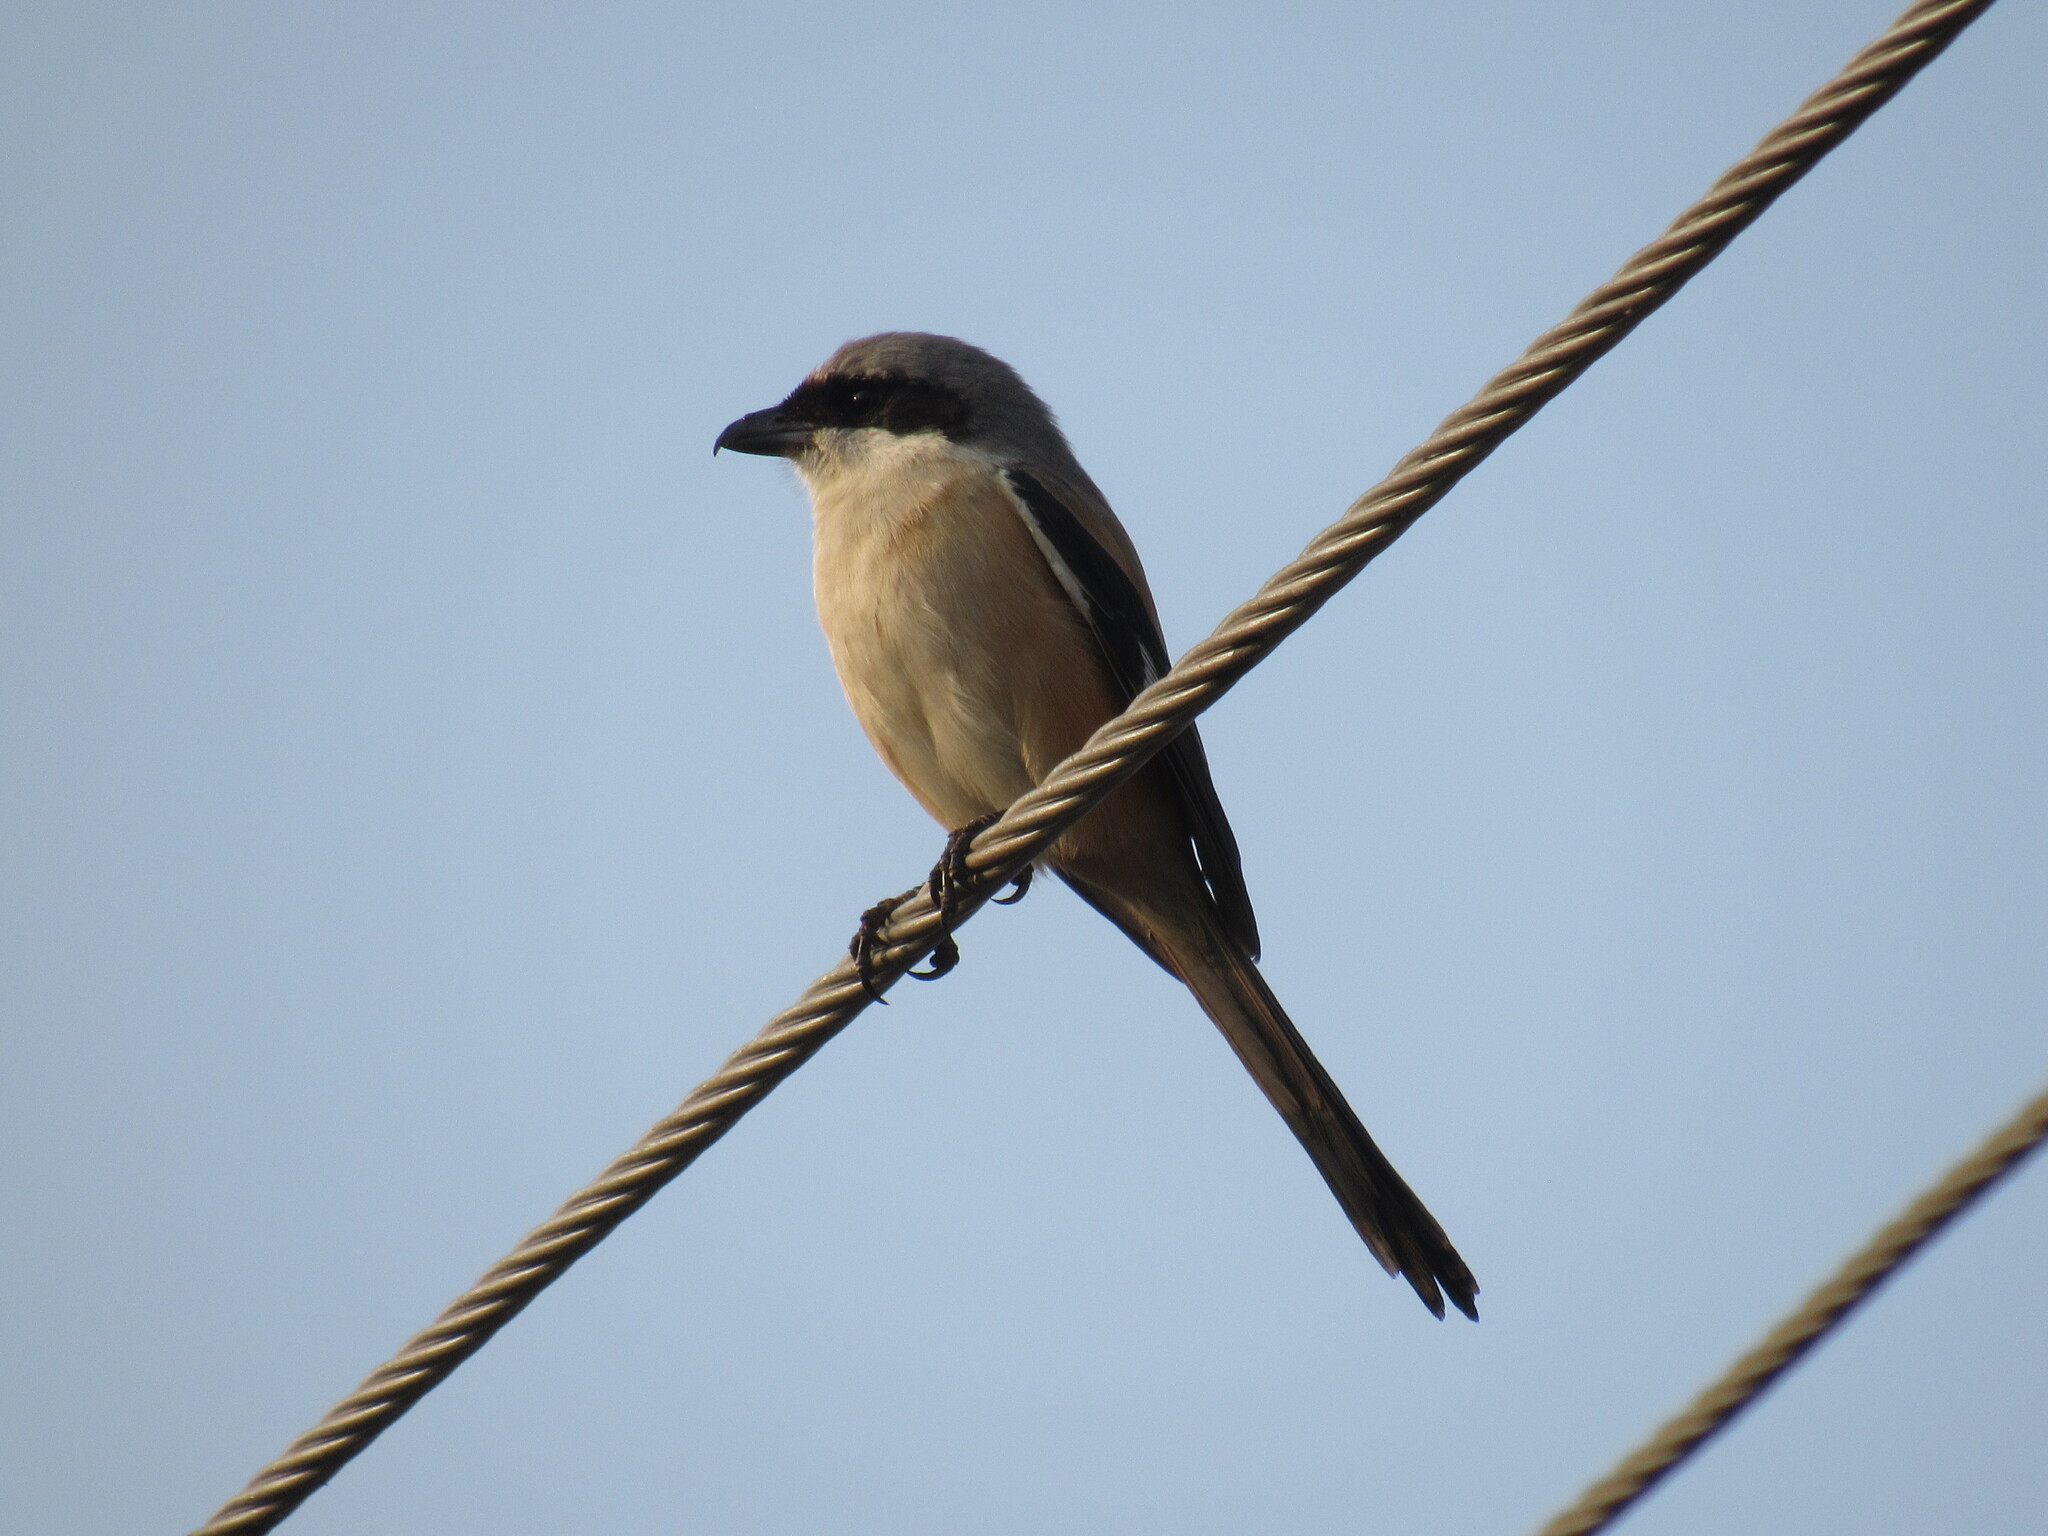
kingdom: Animalia
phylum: Chordata
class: Aves
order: Passeriformes
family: Laniidae
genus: Lanius
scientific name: Lanius schach
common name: Long-tailed shrike
